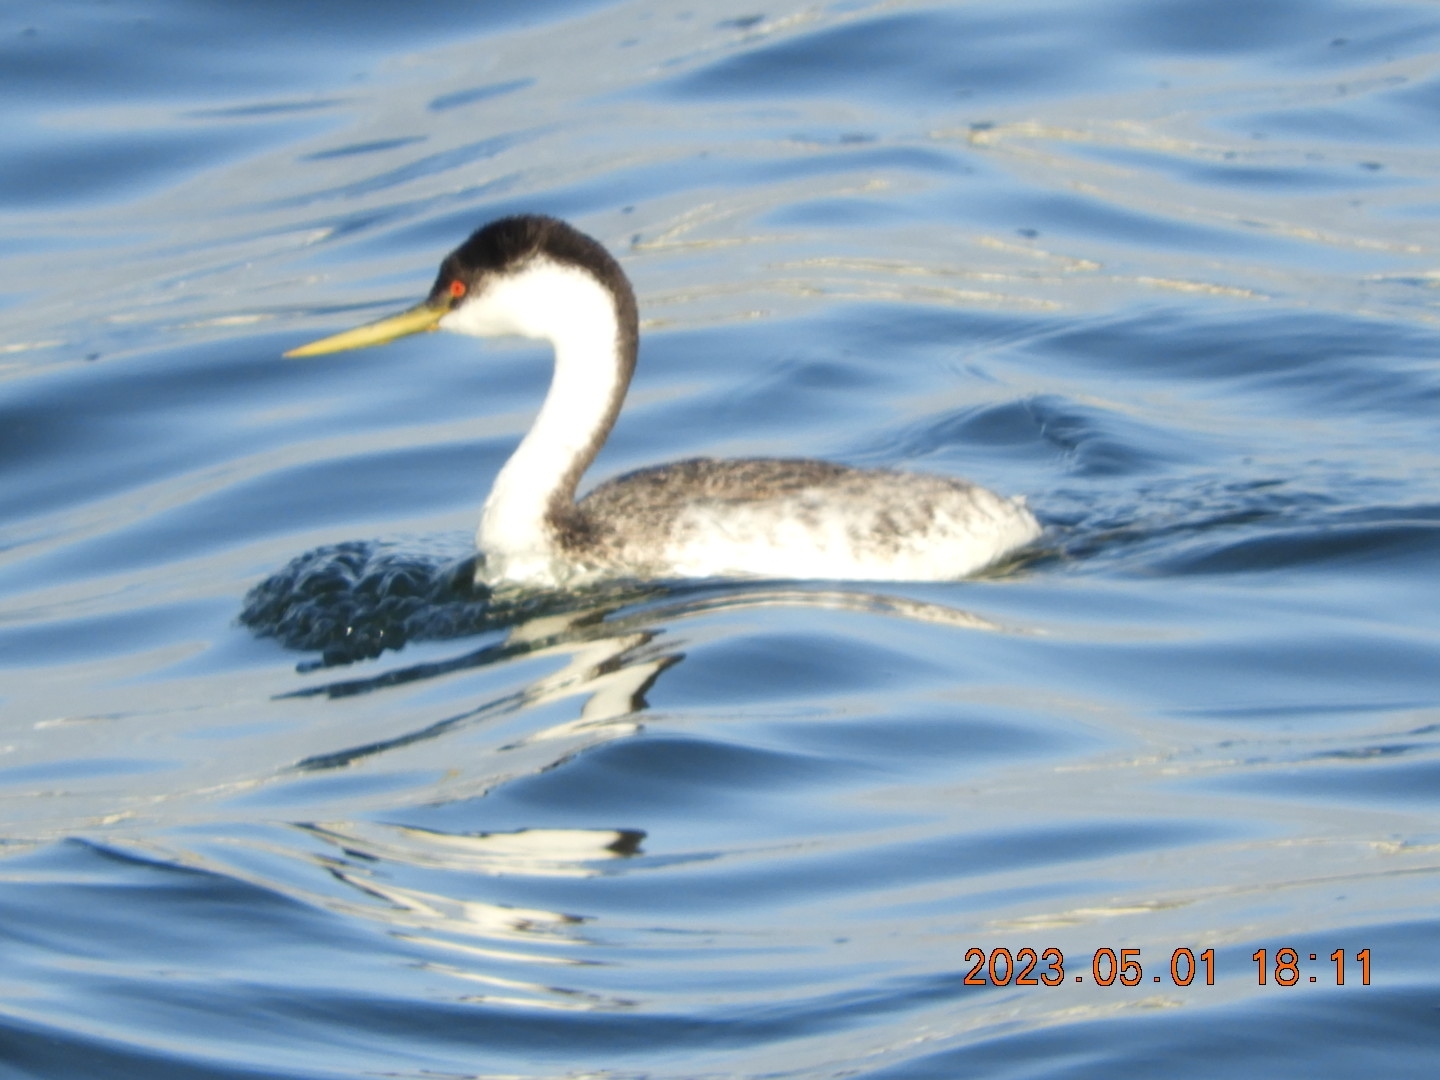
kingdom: Animalia
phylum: Chordata
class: Aves
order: Podicipediformes
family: Podicipedidae
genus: Aechmophorus
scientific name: Aechmophorus occidentalis
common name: Western grebe
